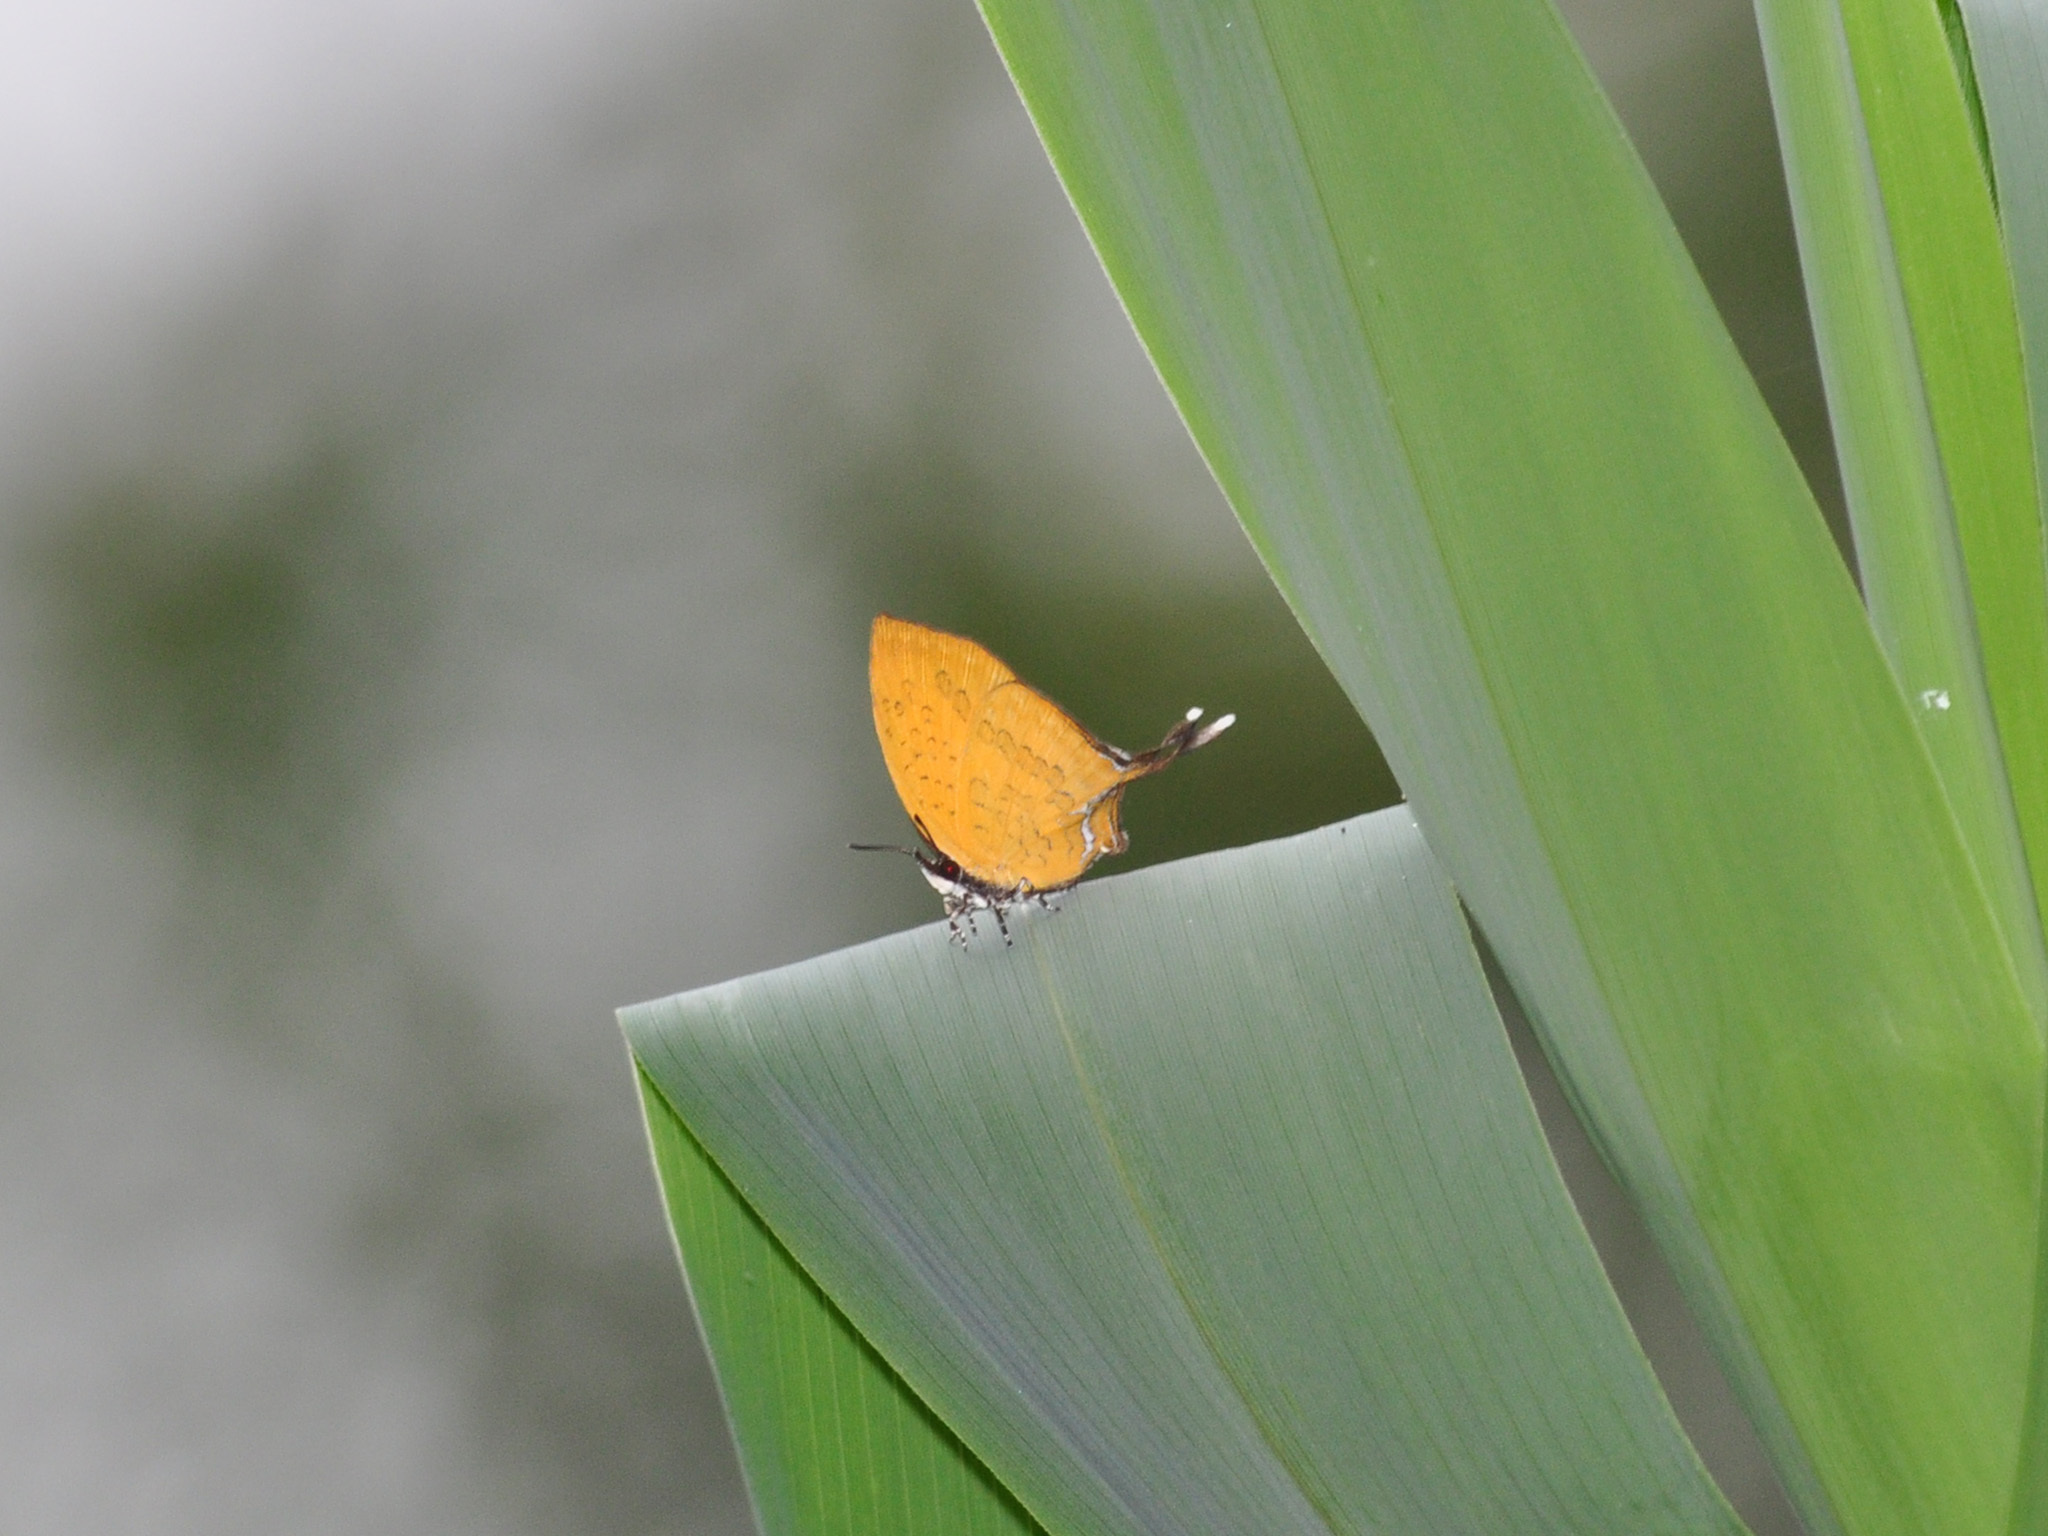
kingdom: Animalia
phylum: Arthropoda
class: Insecta
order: Lepidoptera
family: Lycaenidae
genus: Yasoda
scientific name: Yasoda pita
